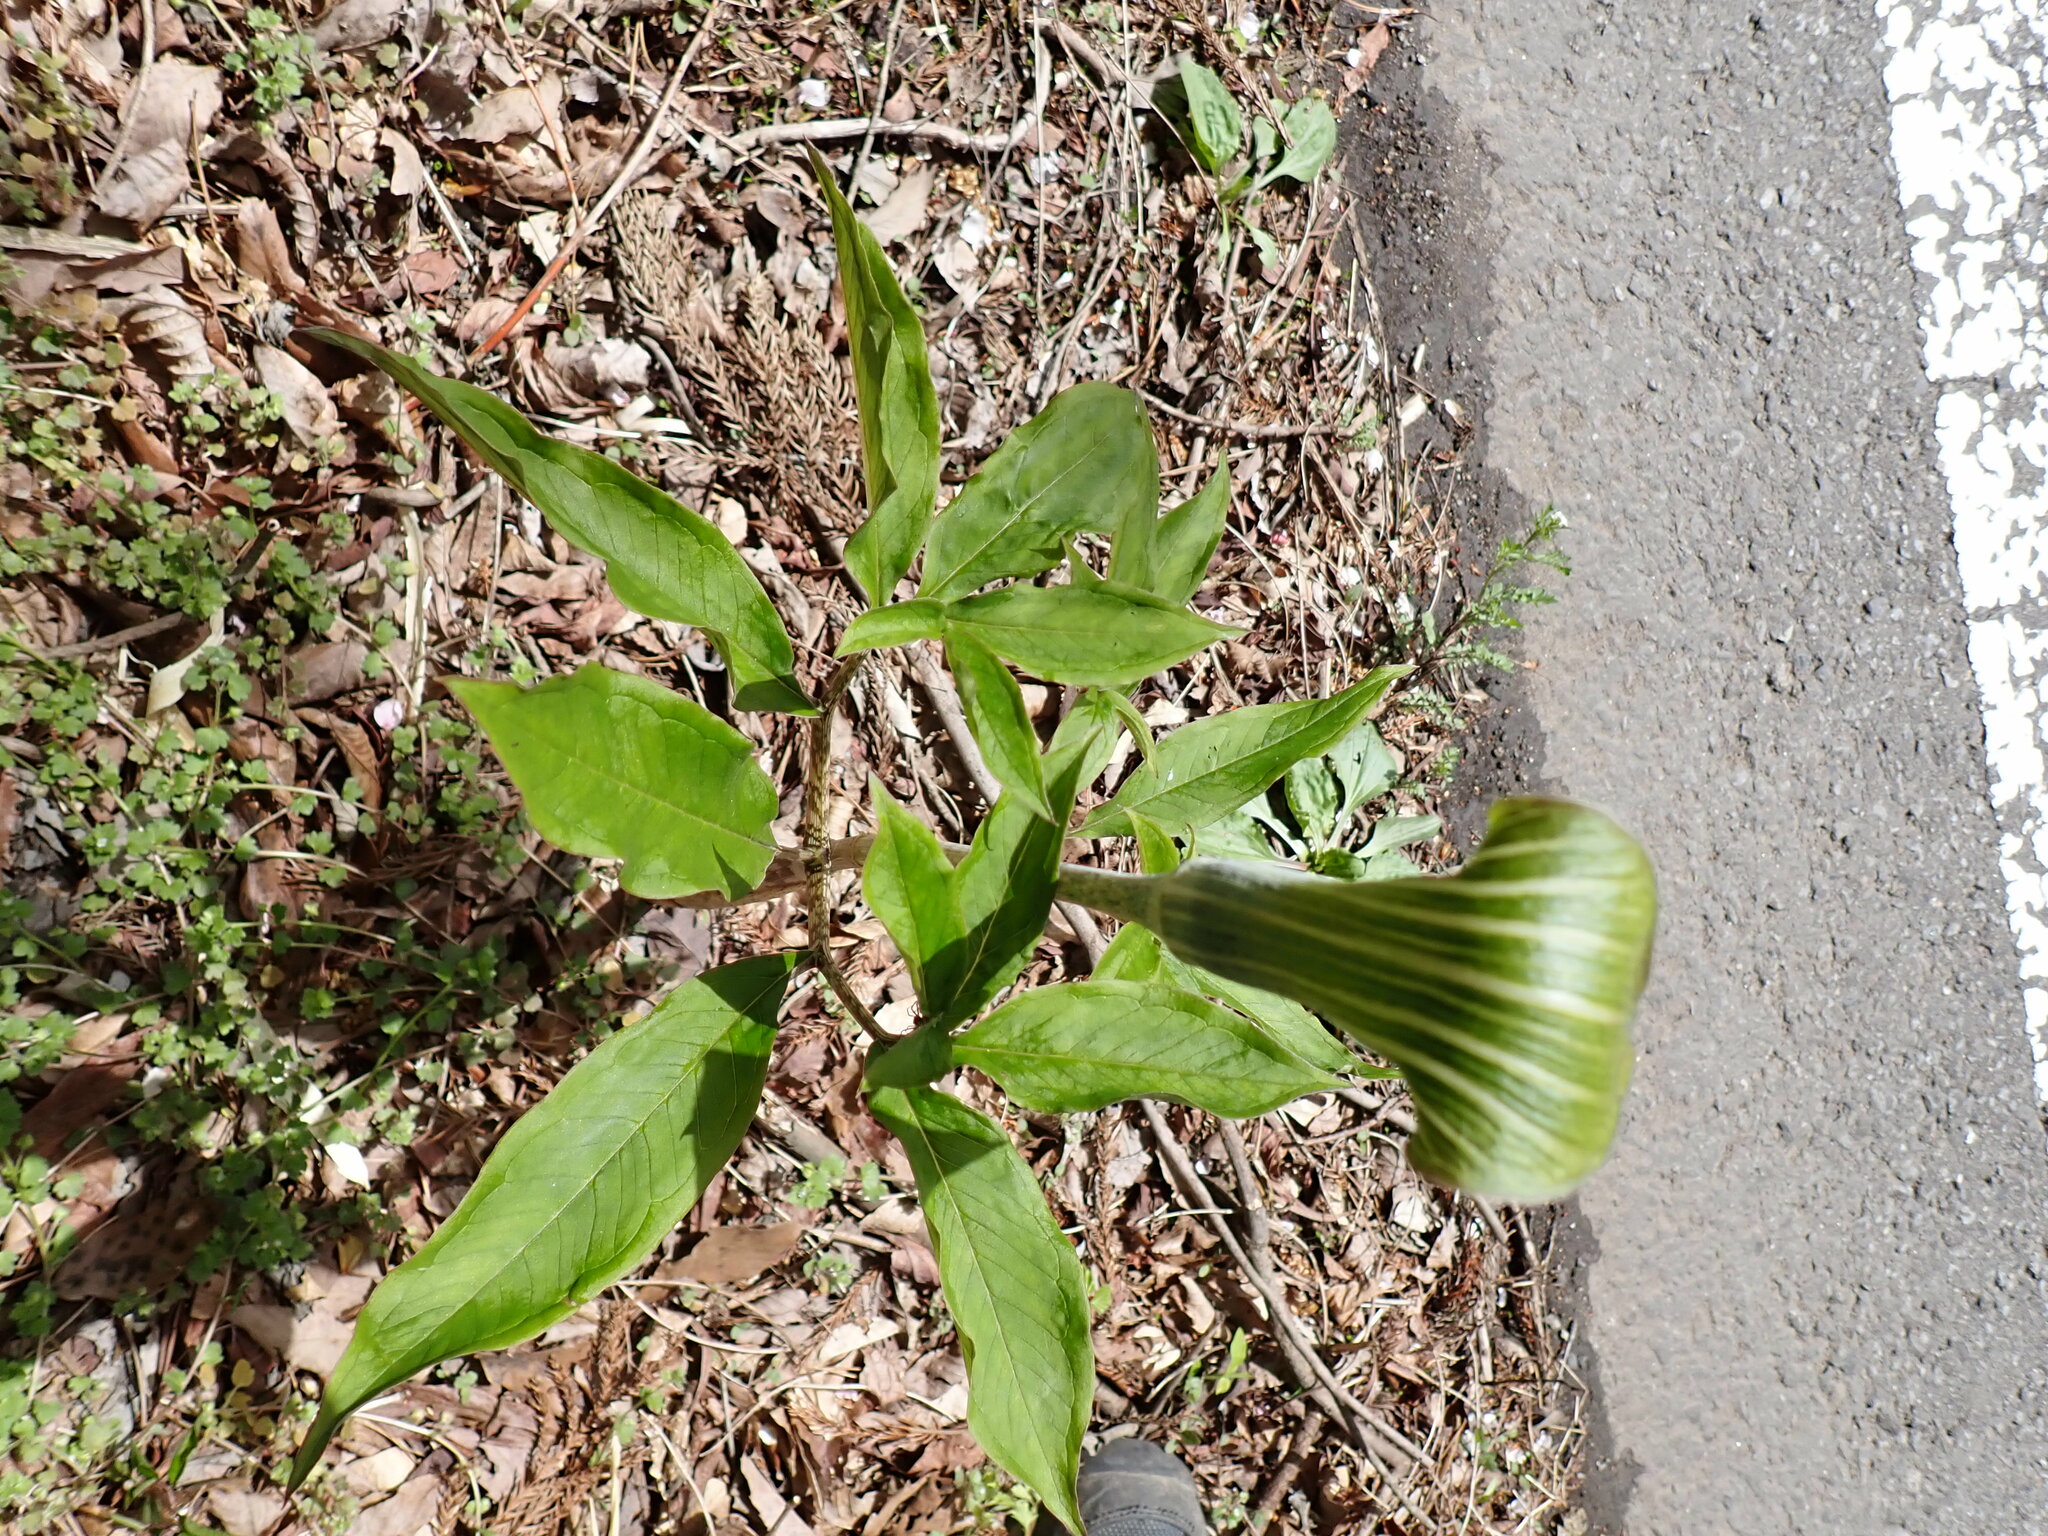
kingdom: Plantae
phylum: Tracheophyta
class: Liliopsida
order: Alismatales
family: Araceae
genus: Arisaema
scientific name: Arisaema japonicum
